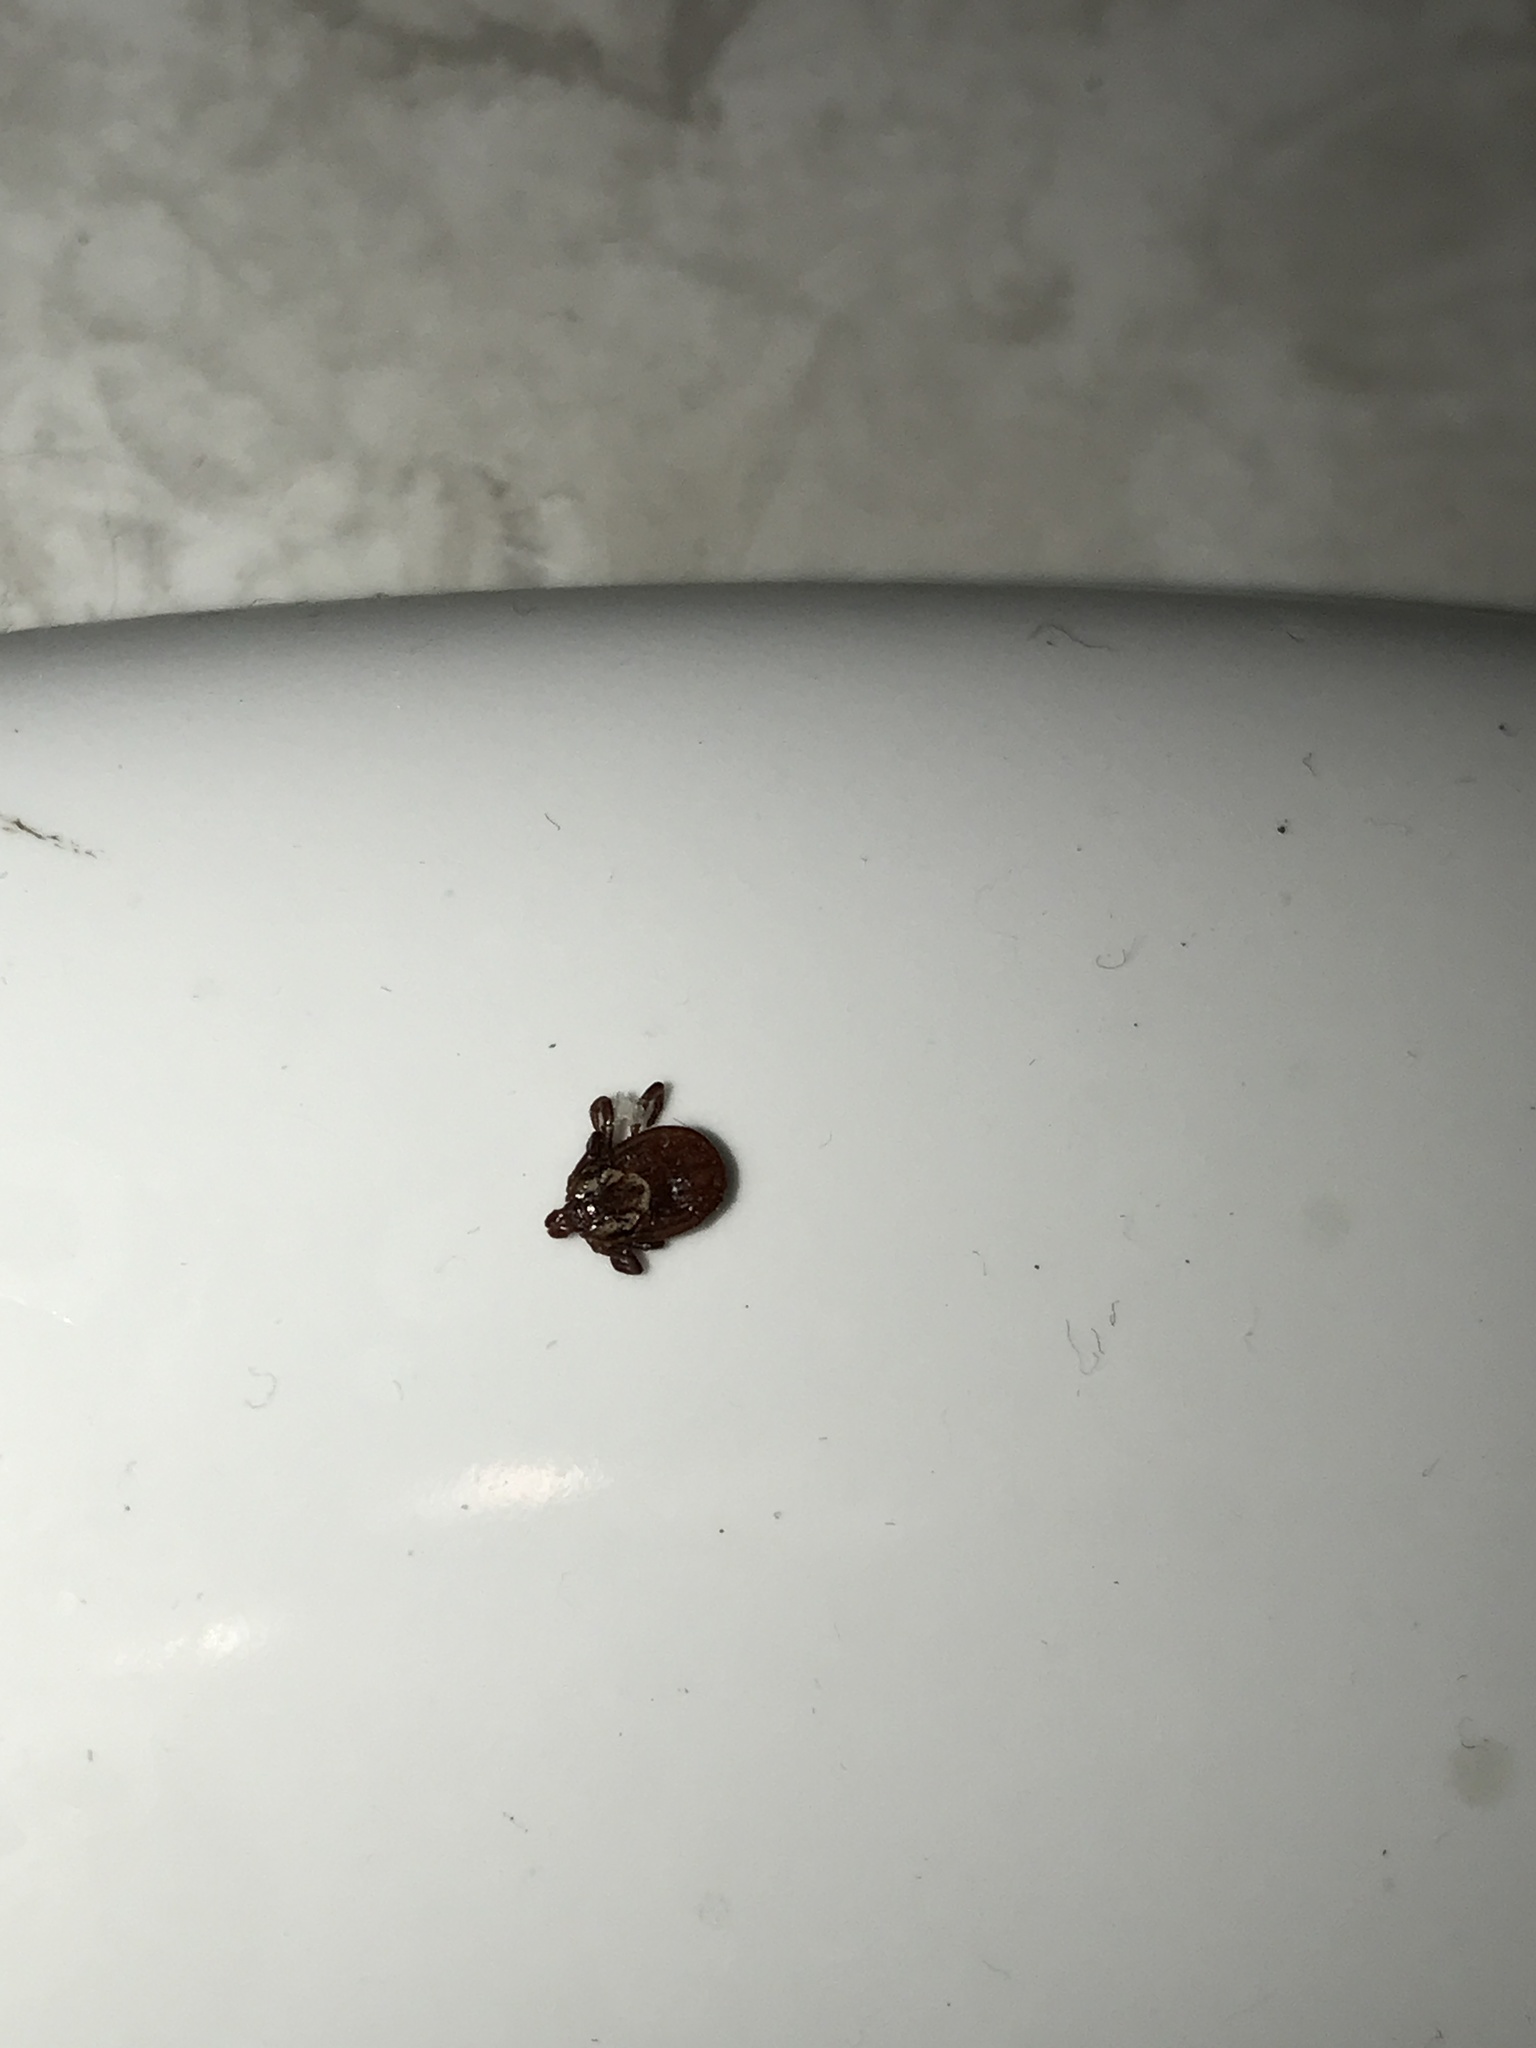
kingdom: Animalia
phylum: Arthropoda
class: Arachnida
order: Ixodida
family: Ixodidae
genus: Dermacentor
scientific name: Dermacentor variabilis
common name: American dog tick
